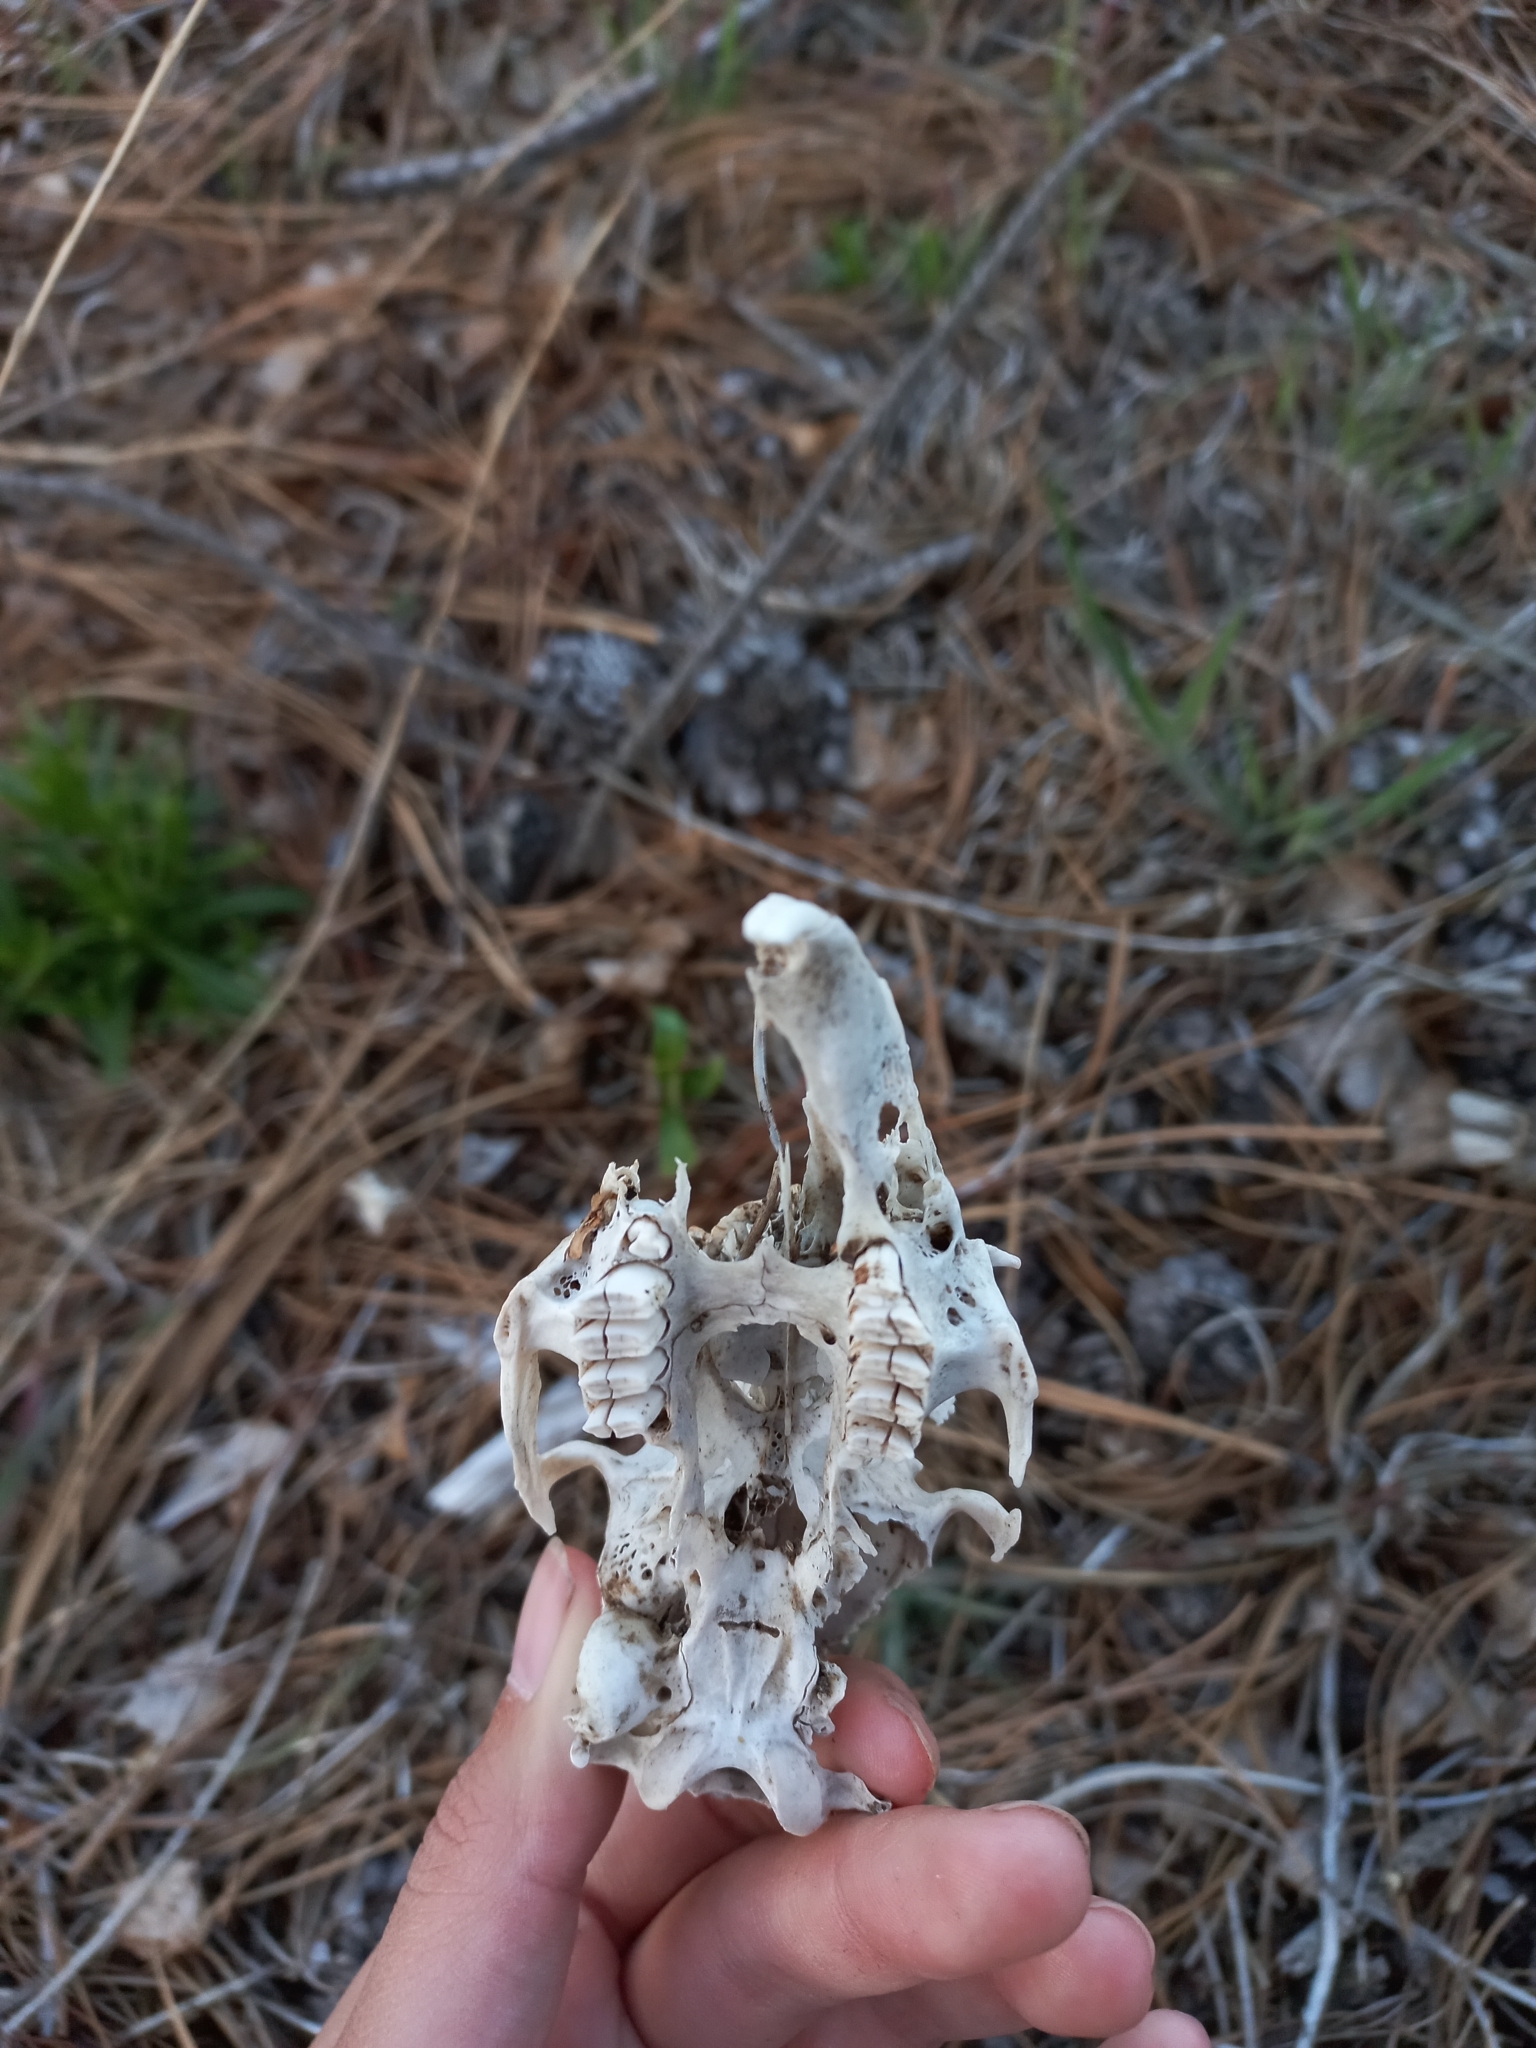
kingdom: Animalia
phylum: Chordata
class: Mammalia
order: Lagomorpha
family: Leporidae
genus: Lepus
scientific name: Lepus europaeus
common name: European hare
